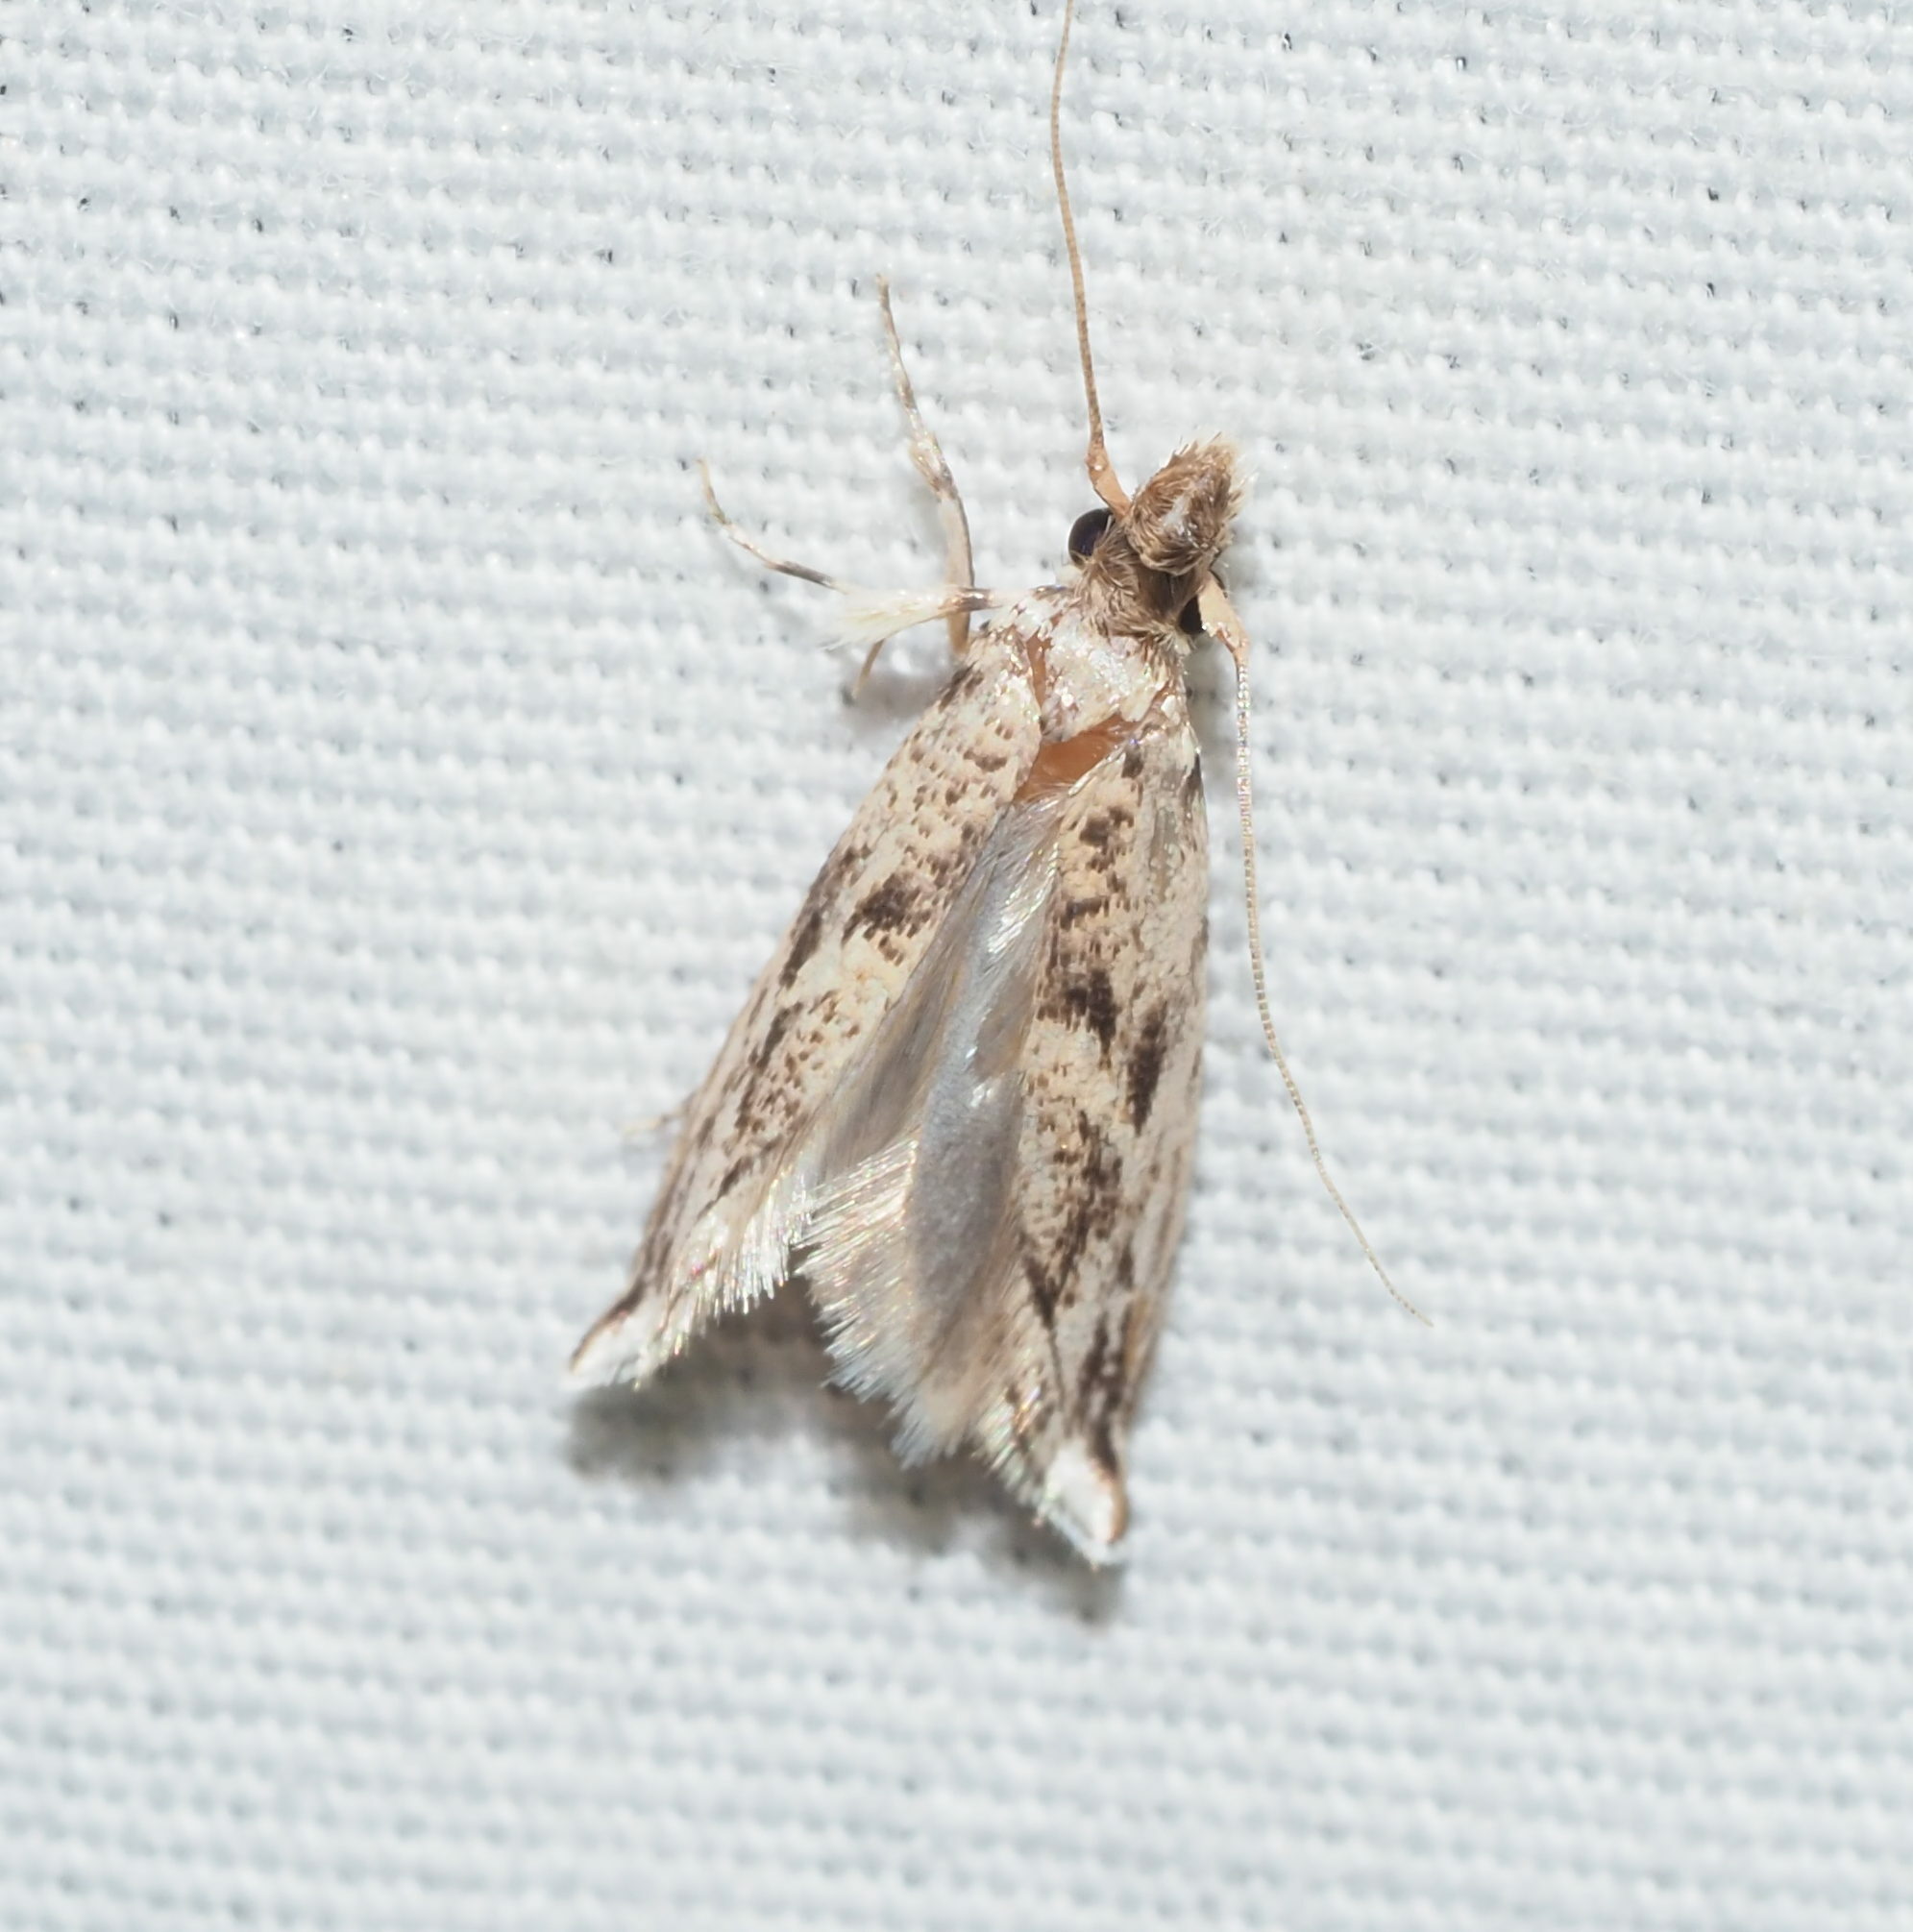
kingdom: Animalia
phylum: Arthropoda
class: Insecta
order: Lepidoptera
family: Tineidae
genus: Erechthias
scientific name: Erechthias pelotricha
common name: Fungus moth
